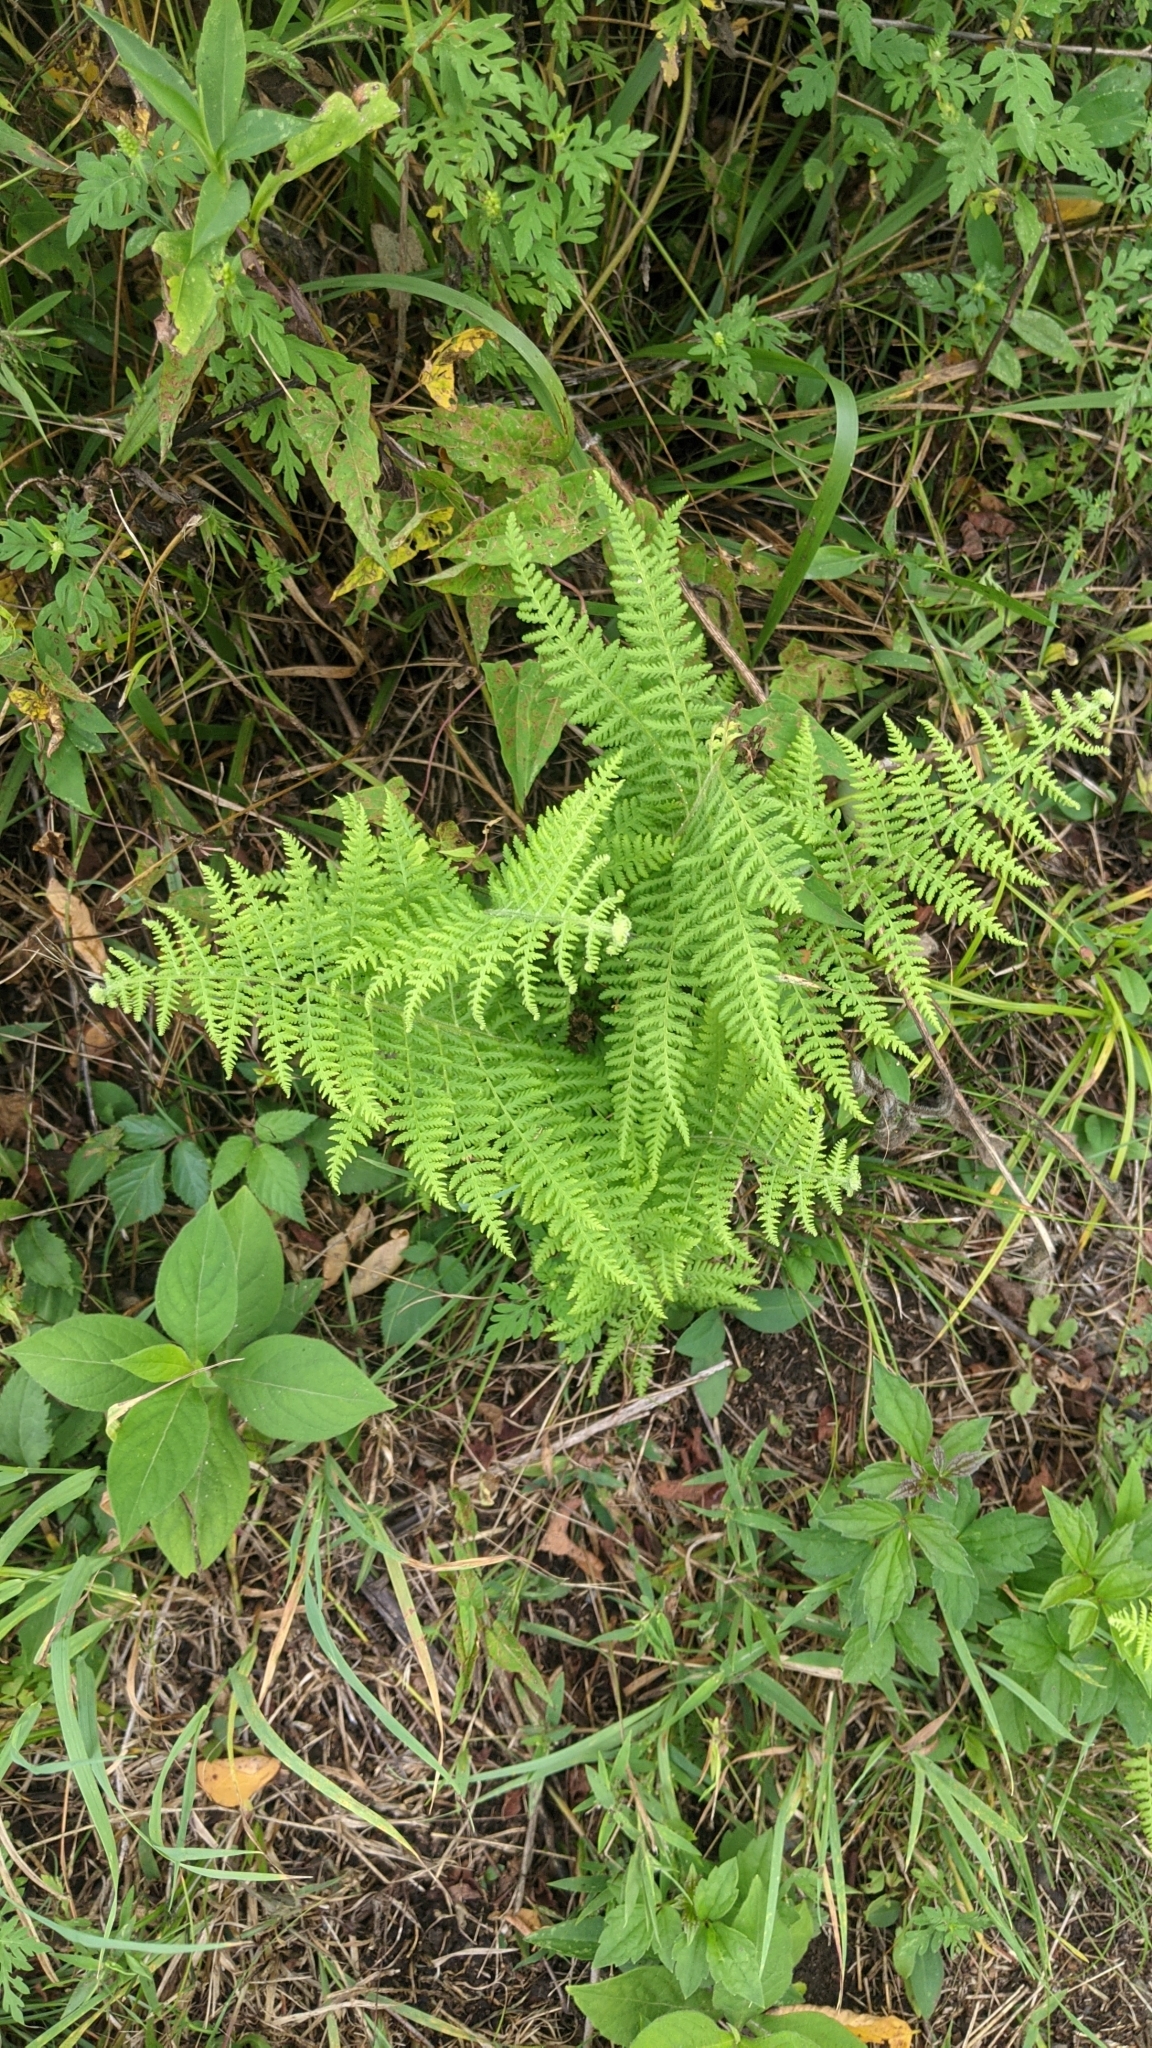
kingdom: Plantae
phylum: Tracheophyta
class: Polypodiopsida
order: Polypodiales
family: Dennstaedtiaceae
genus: Sitobolium
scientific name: Sitobolium punctilobum
